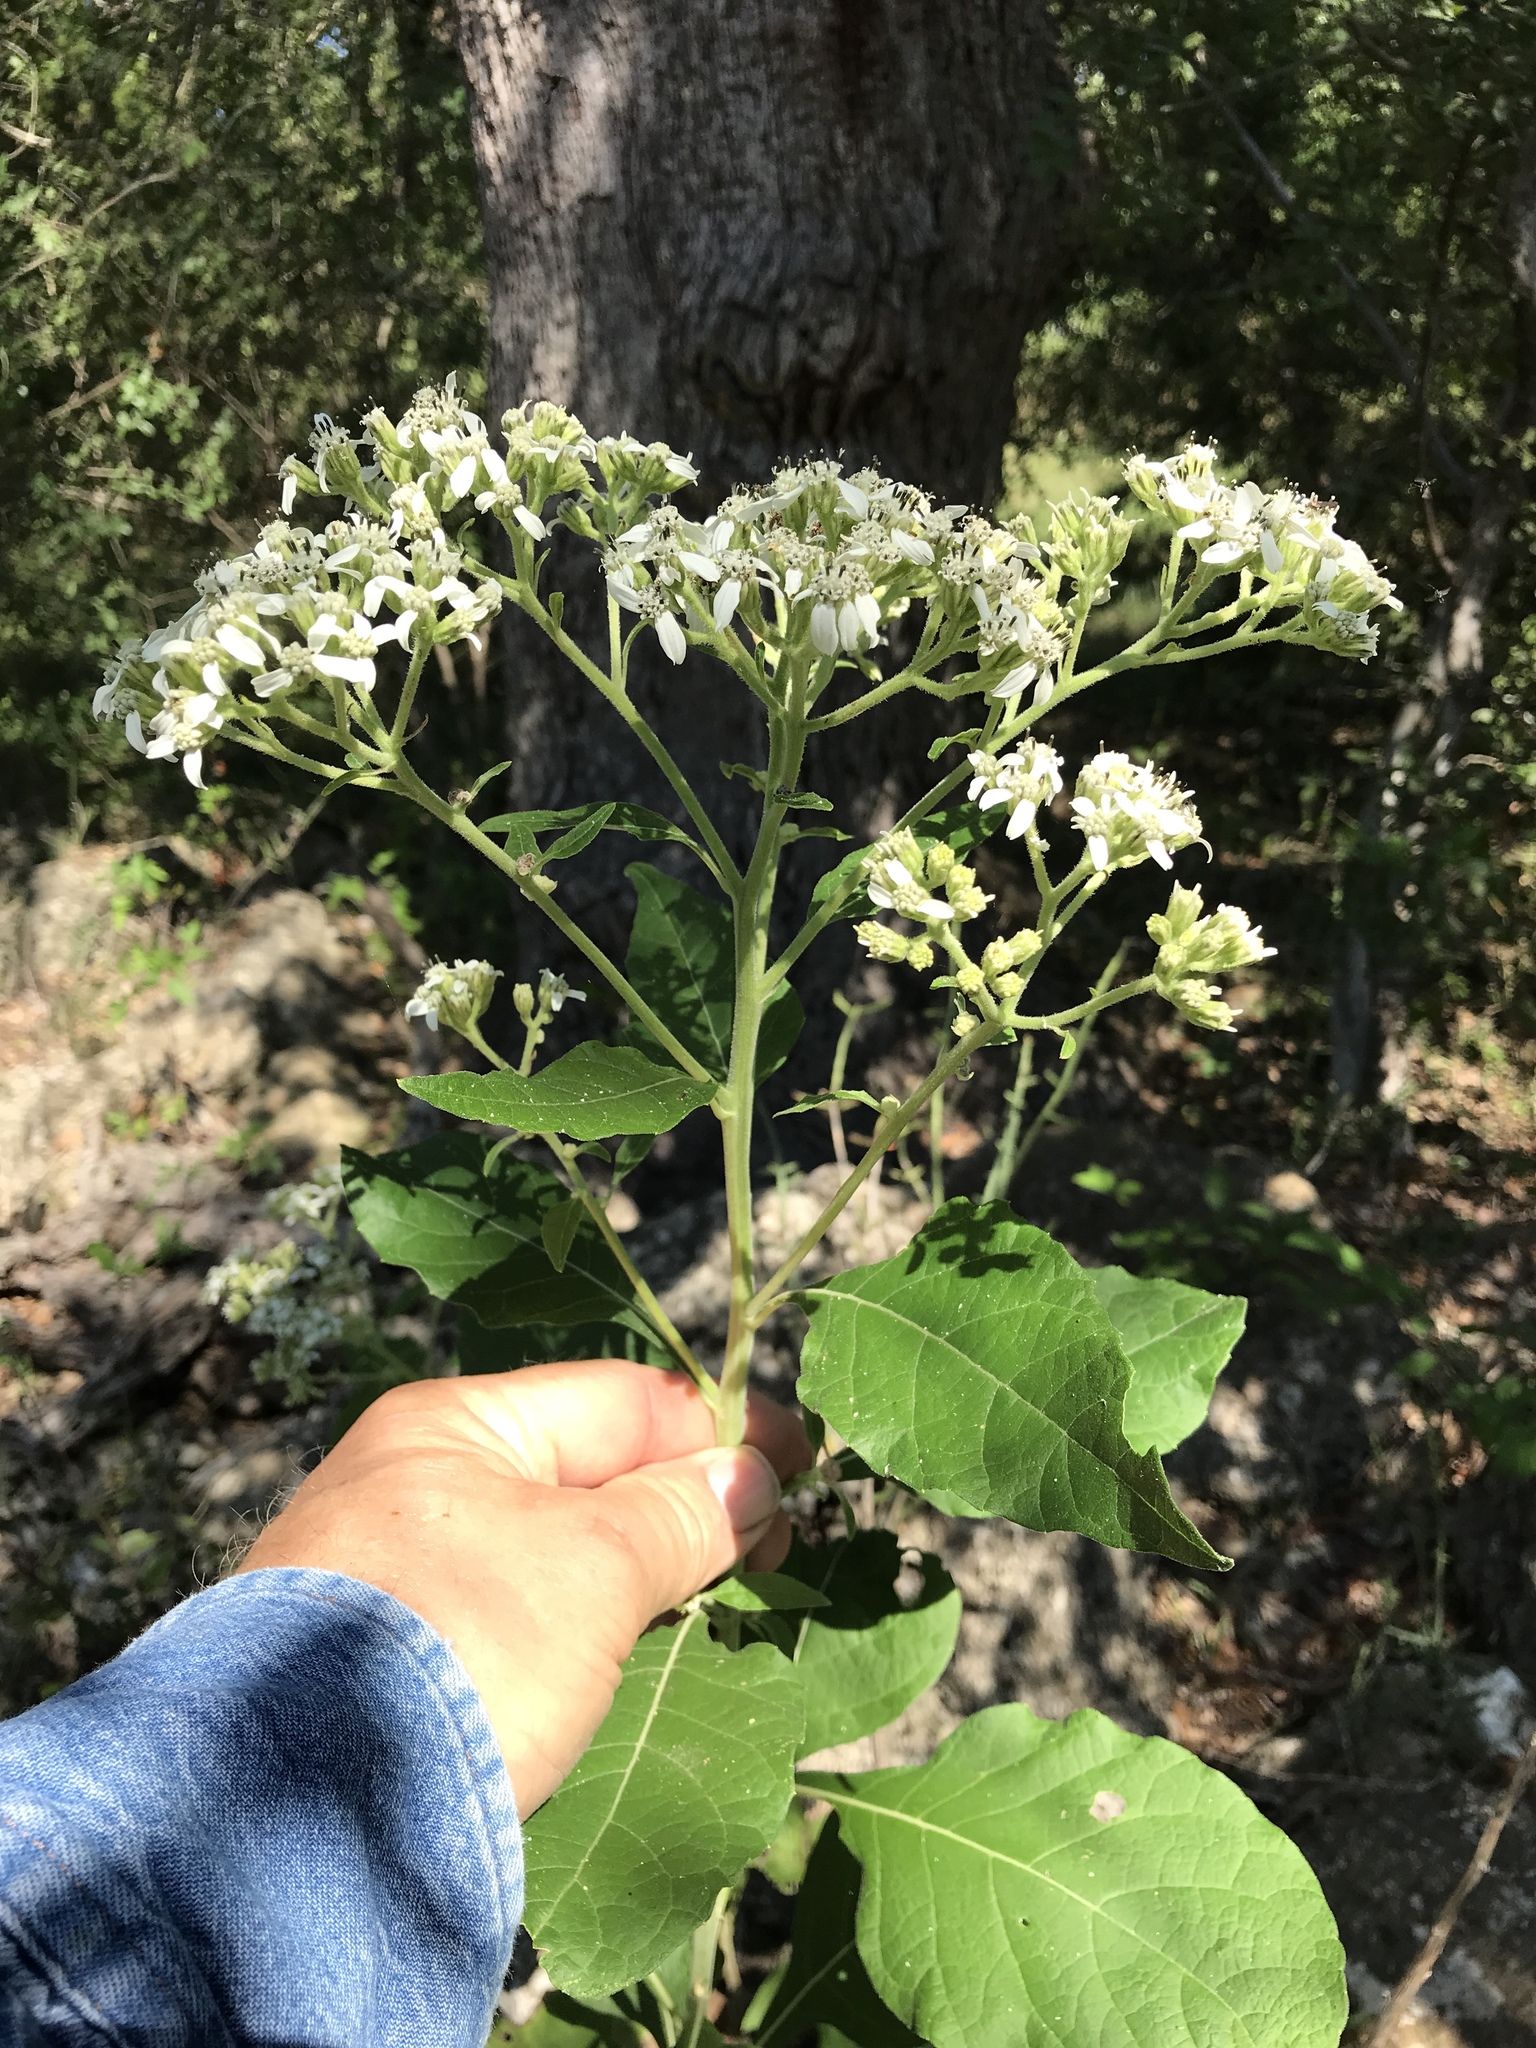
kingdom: Plantae
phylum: Tracheophyta
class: Magnoliopsida
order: Asterales
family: Asteraceae
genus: Verbesina
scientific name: Verbesina virginica
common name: Frostweed
